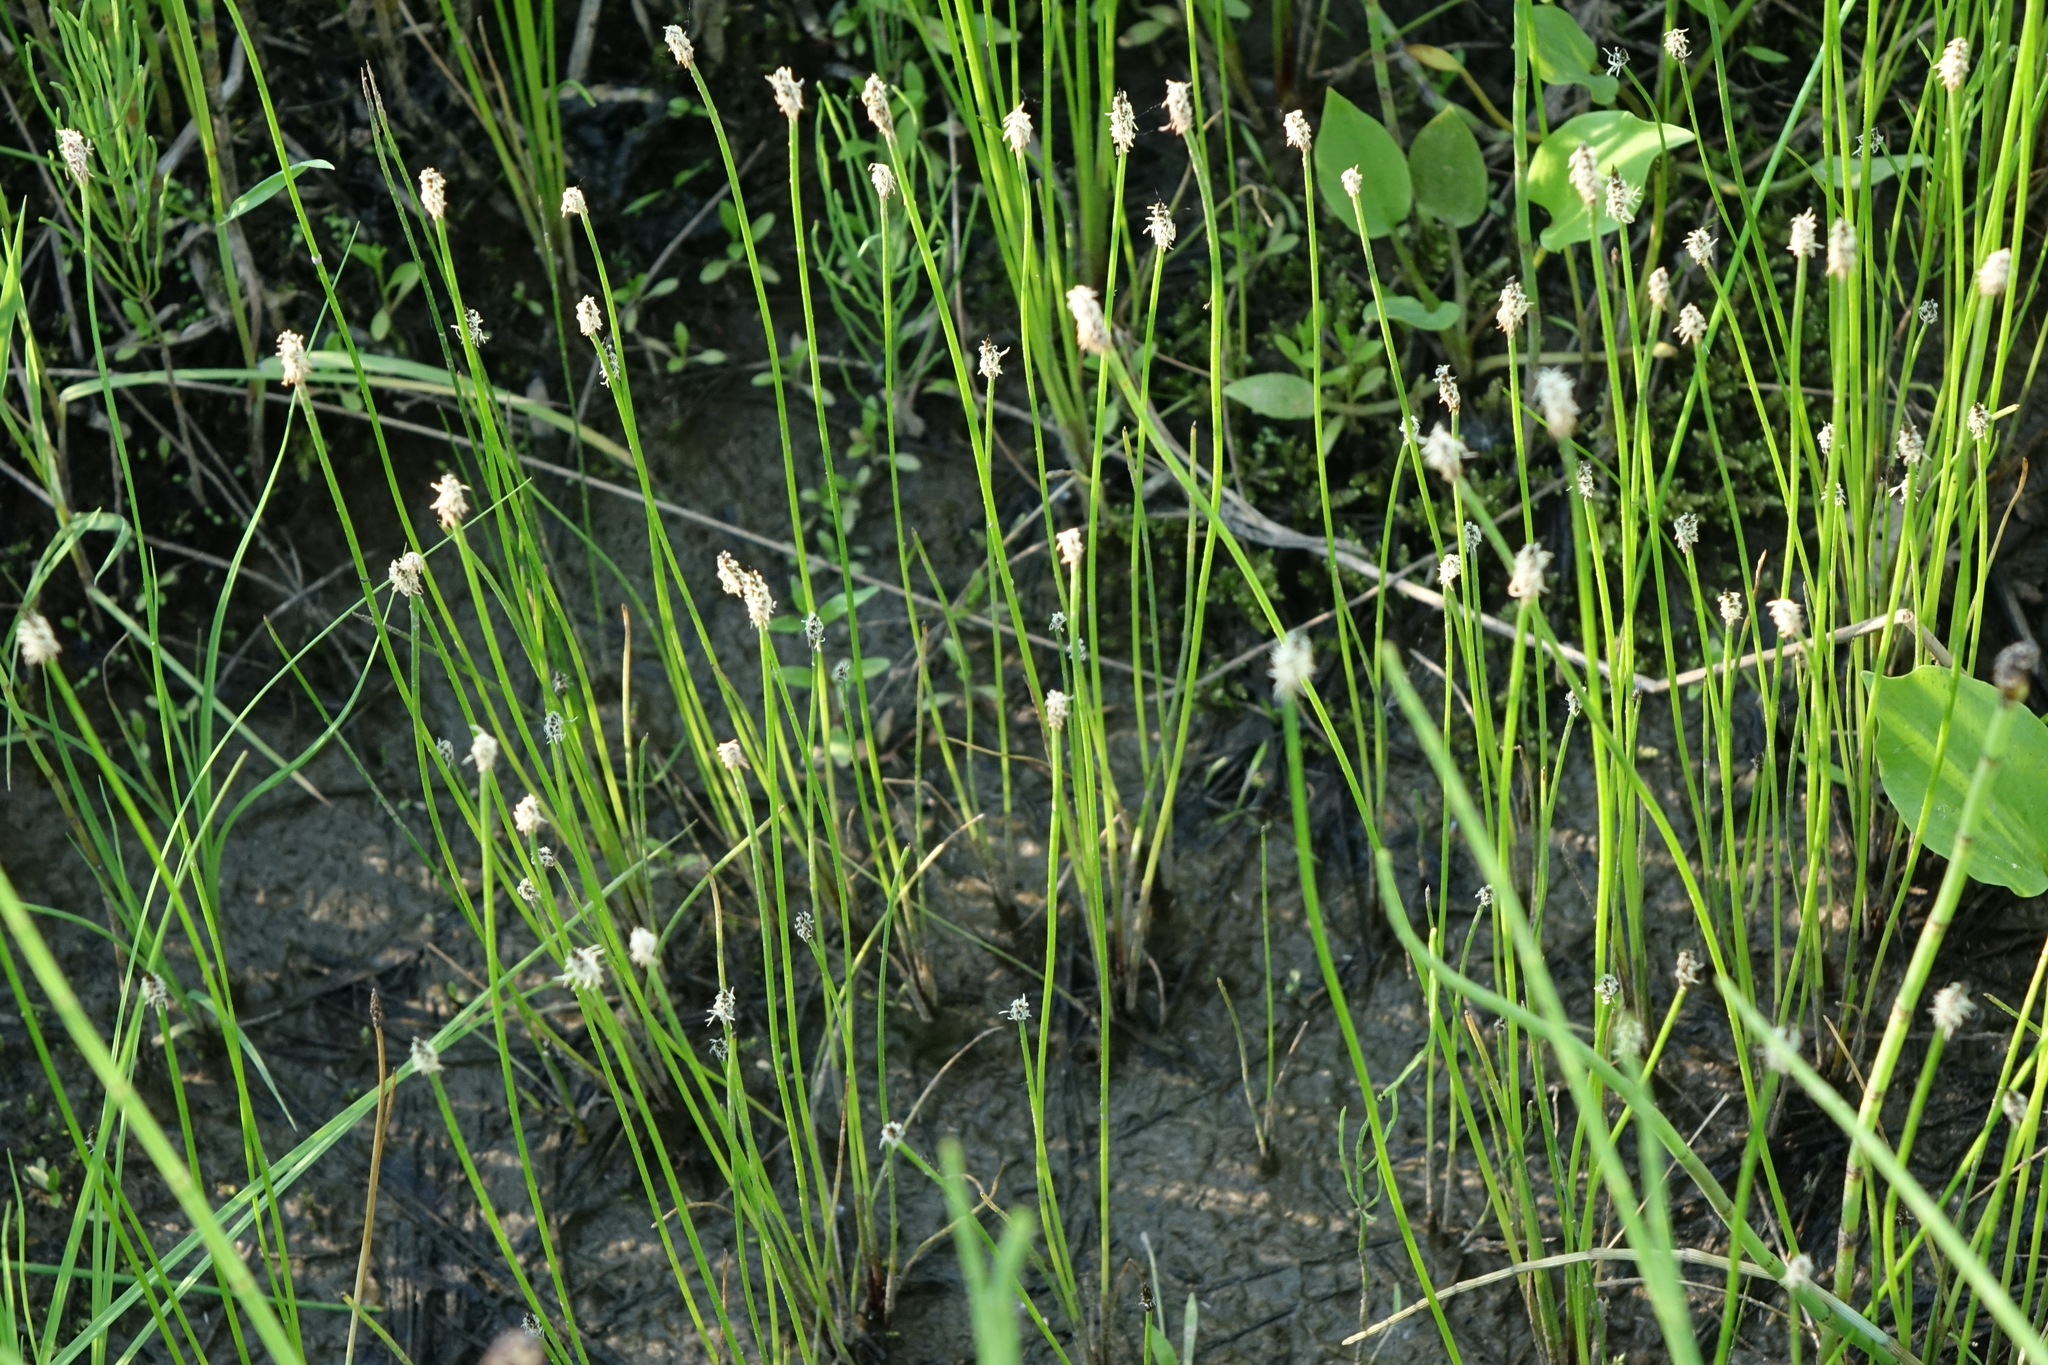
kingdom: Plantae
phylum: Tracheophyta
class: Liliopsida
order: Poales
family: Cyperaceae
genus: Eleocharis
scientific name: Eleocharis palustris
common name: Common spike-rush
